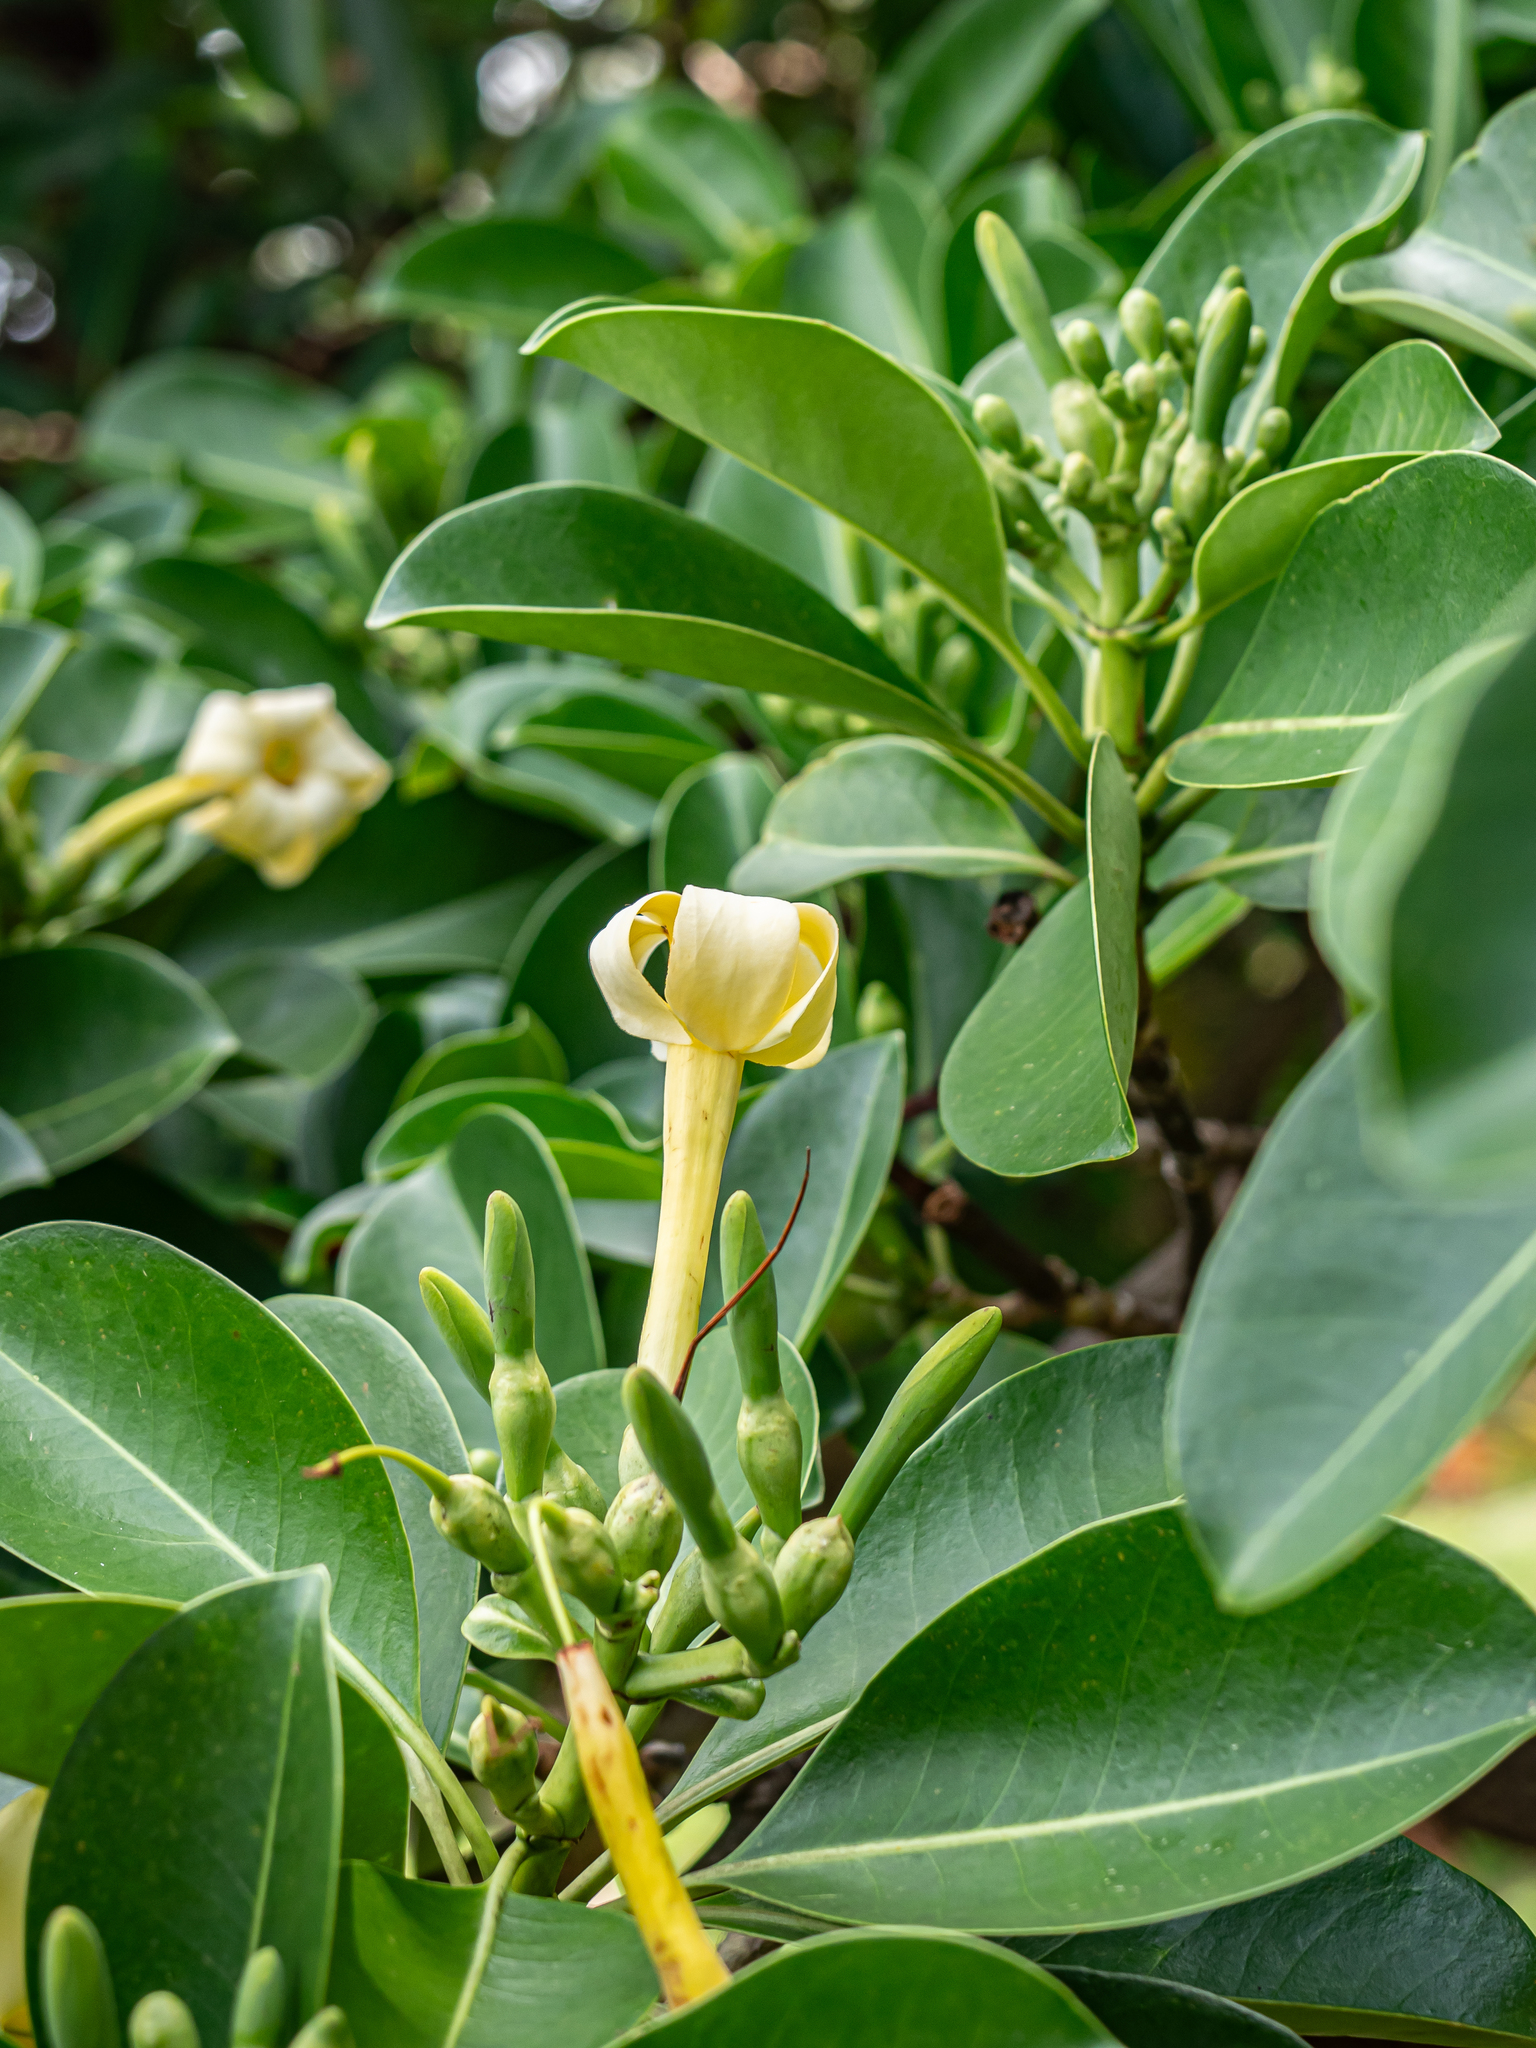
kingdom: Plantae
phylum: Tracheophyta
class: Magnoliopsida
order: Gentianales
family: Gentianaceae
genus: Fagraea
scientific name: Fagraea berteroana
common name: Cape jitta
